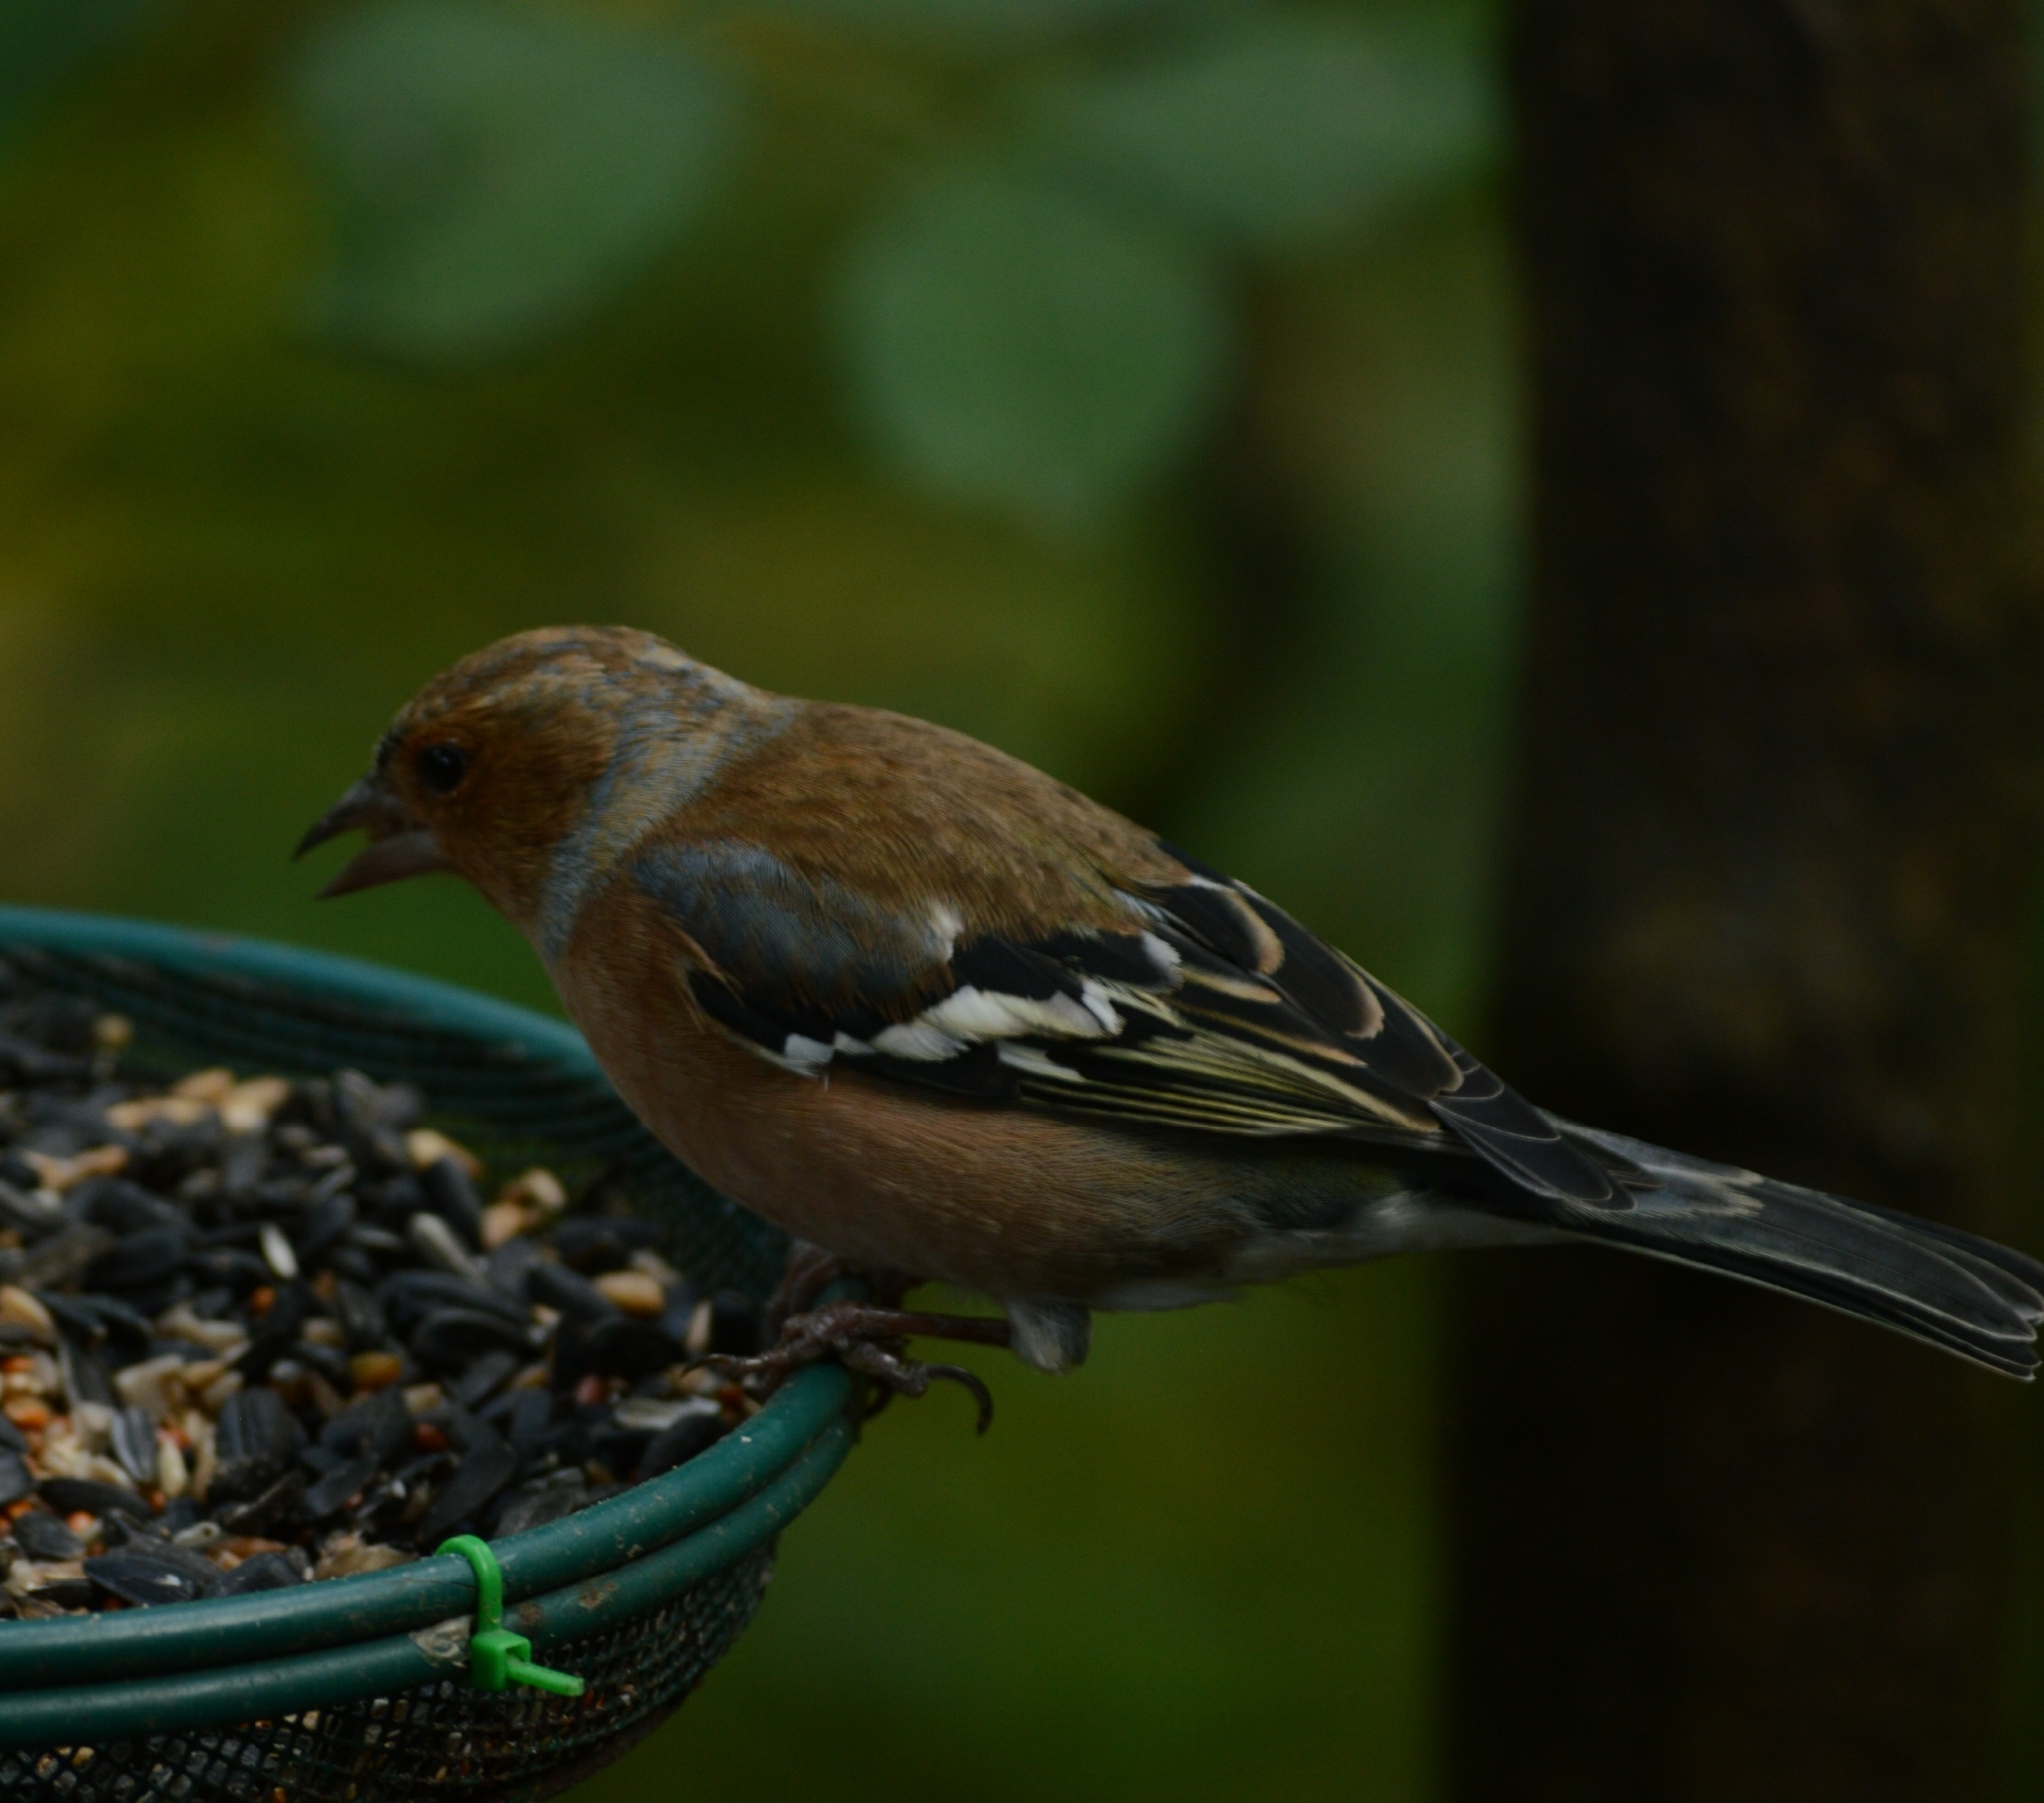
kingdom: Animalia
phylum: Chordata
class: Aves
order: Passeriformes
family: Fringillidae
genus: Fringilla
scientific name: Fringilla coelebs
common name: Common chaffinch
